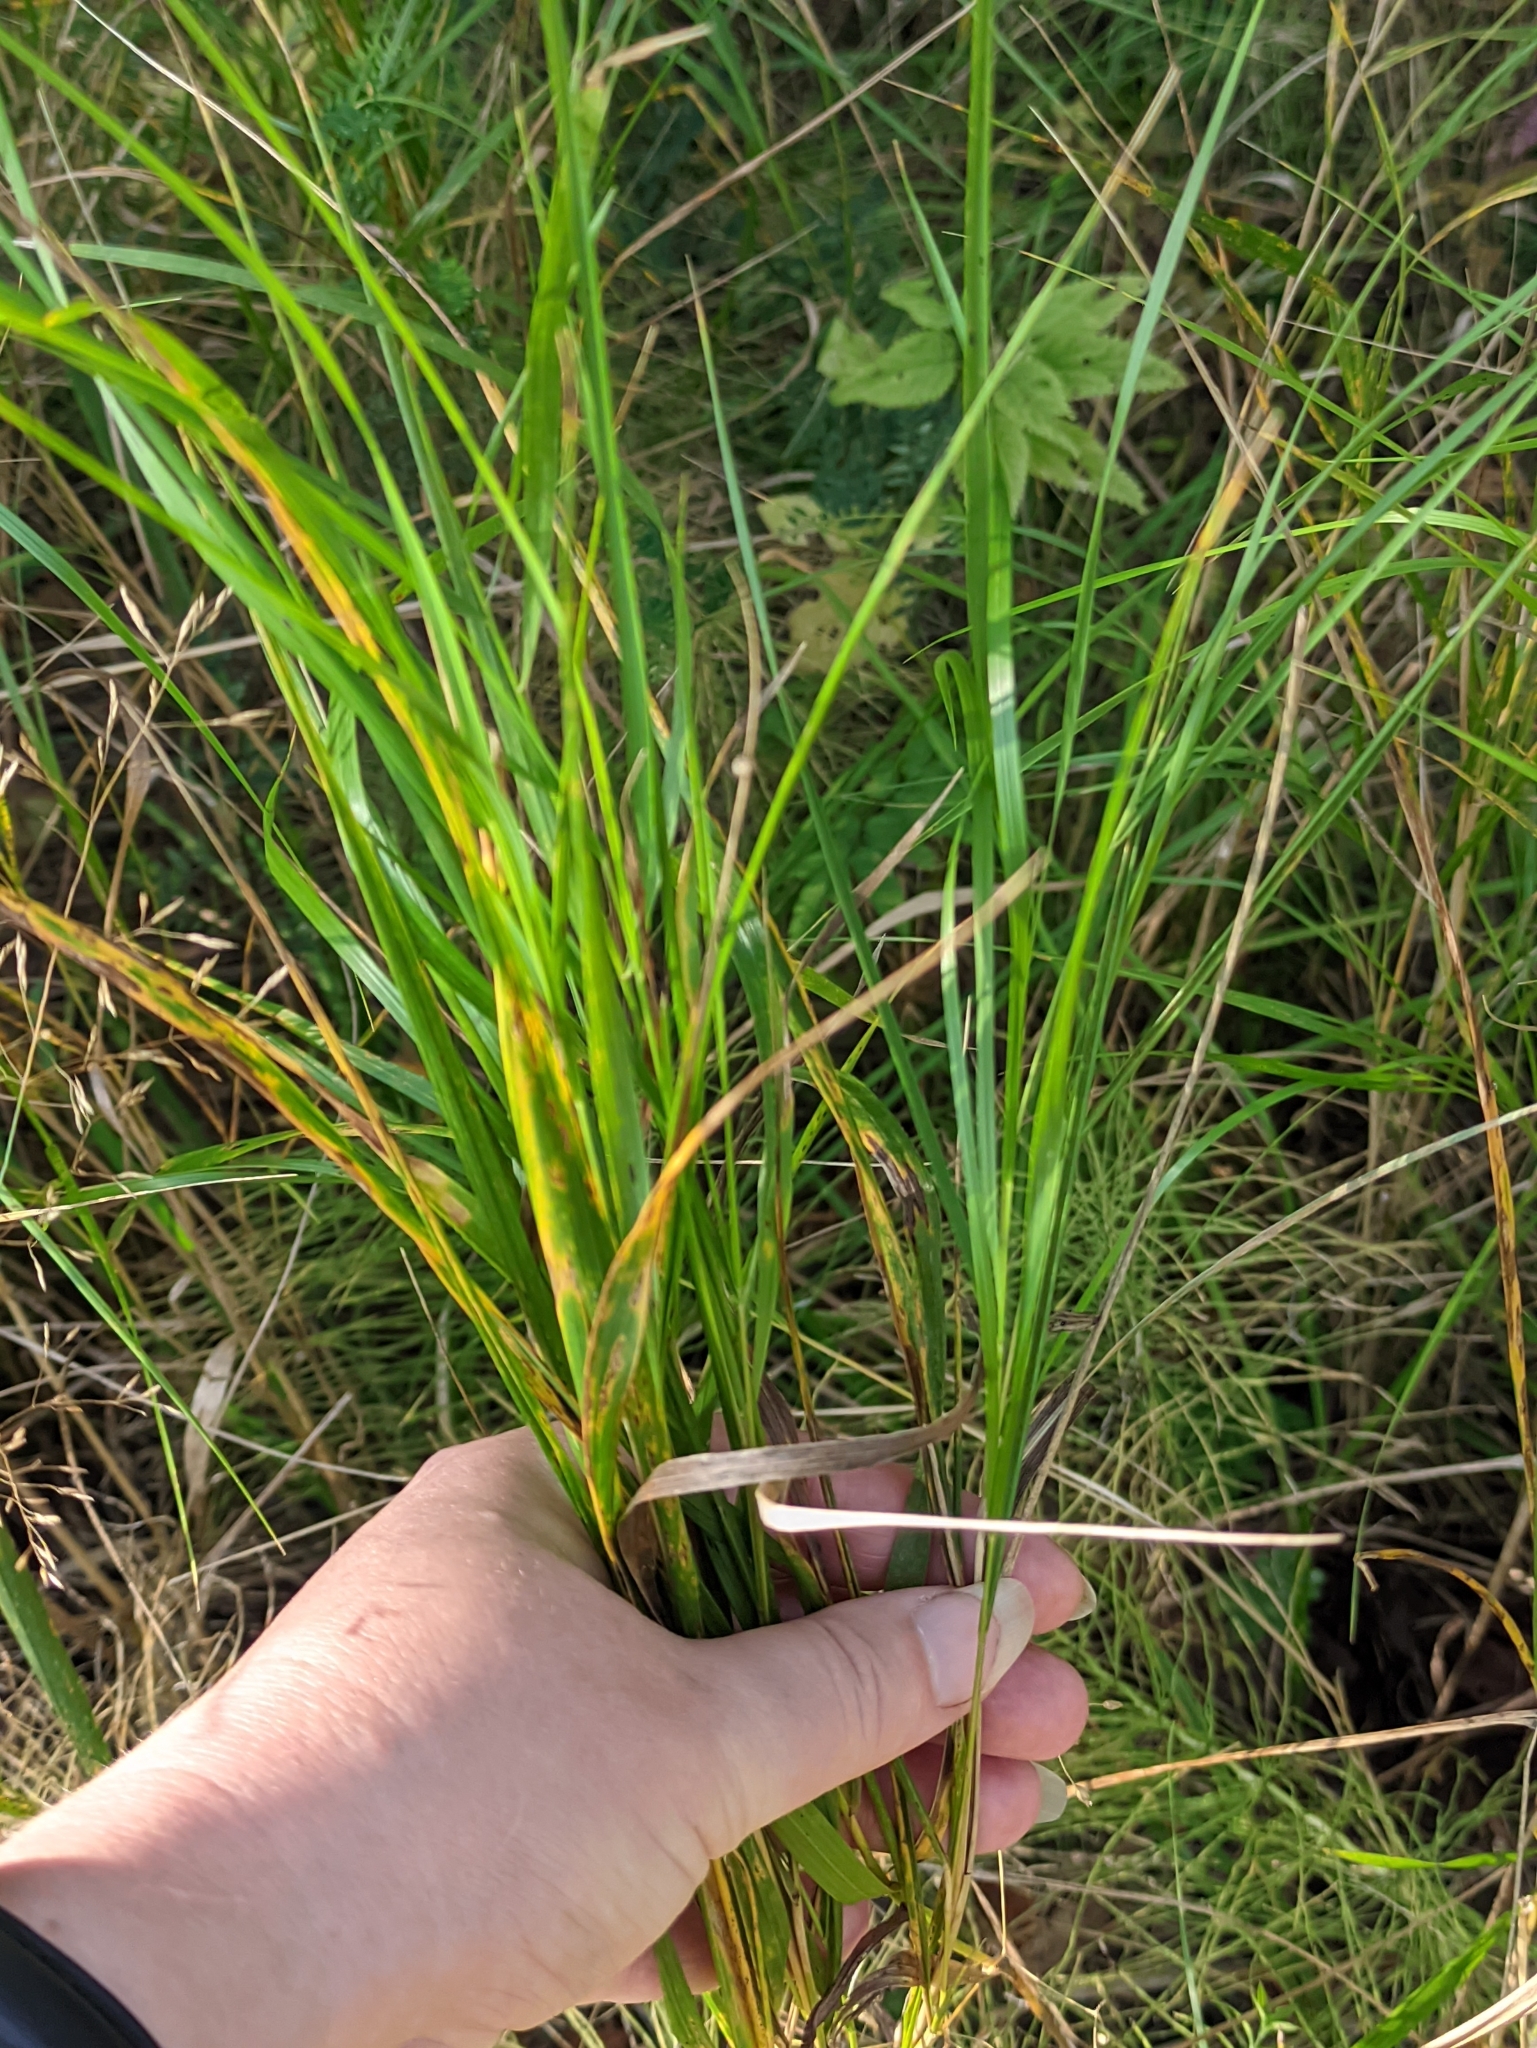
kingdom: Plantae
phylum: Tracheophyta
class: Liliopsida
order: Poales
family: Poaceae
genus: Calamagrostis
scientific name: Calamagrostis canescens
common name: Purple small-reed
